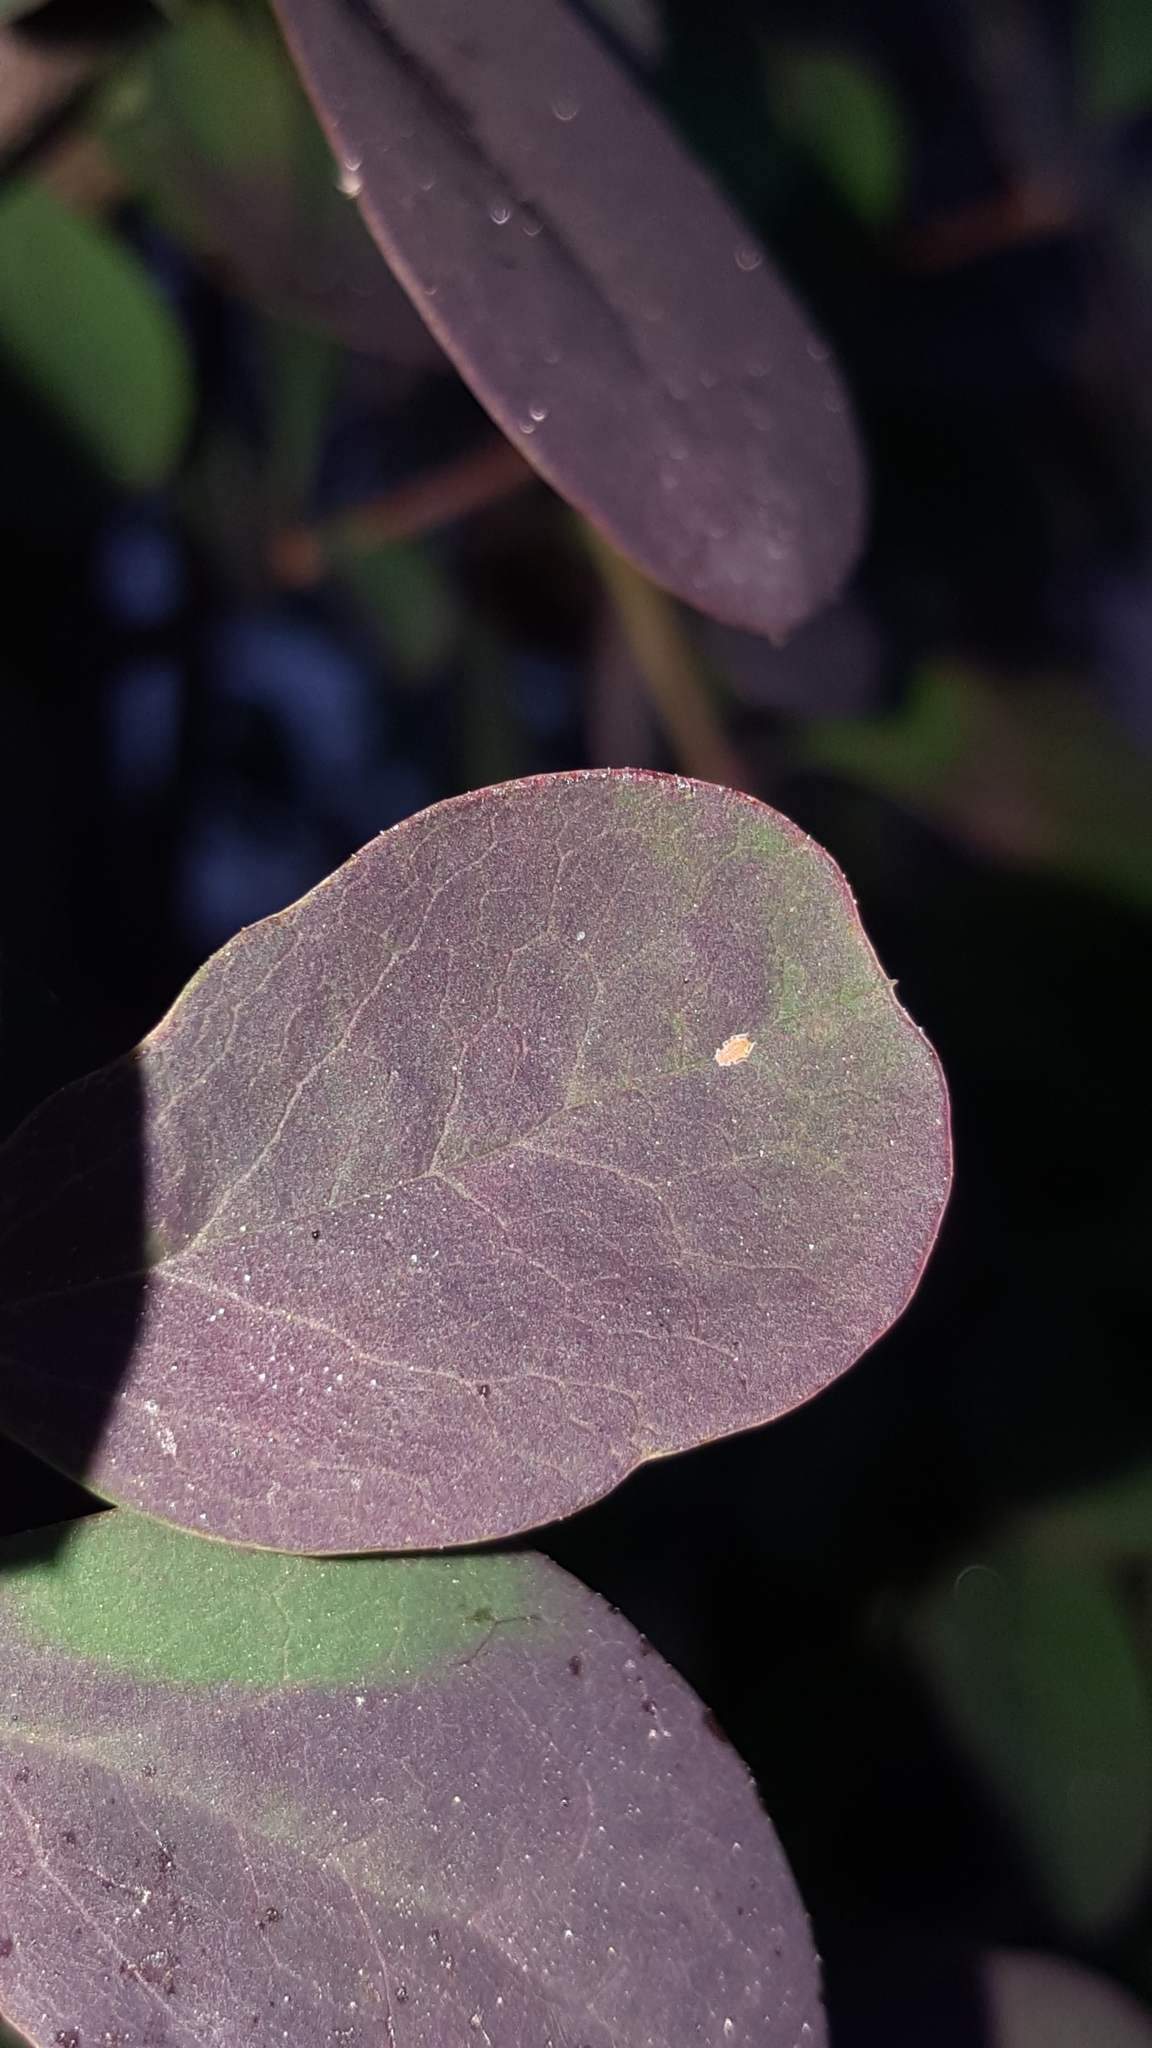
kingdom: Animalia
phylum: Arthropoda
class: Insecta
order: Hemiptera
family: Aphididae
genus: Liosomaphis
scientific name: Liosomaphis berberidis
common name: Barberry aphid
